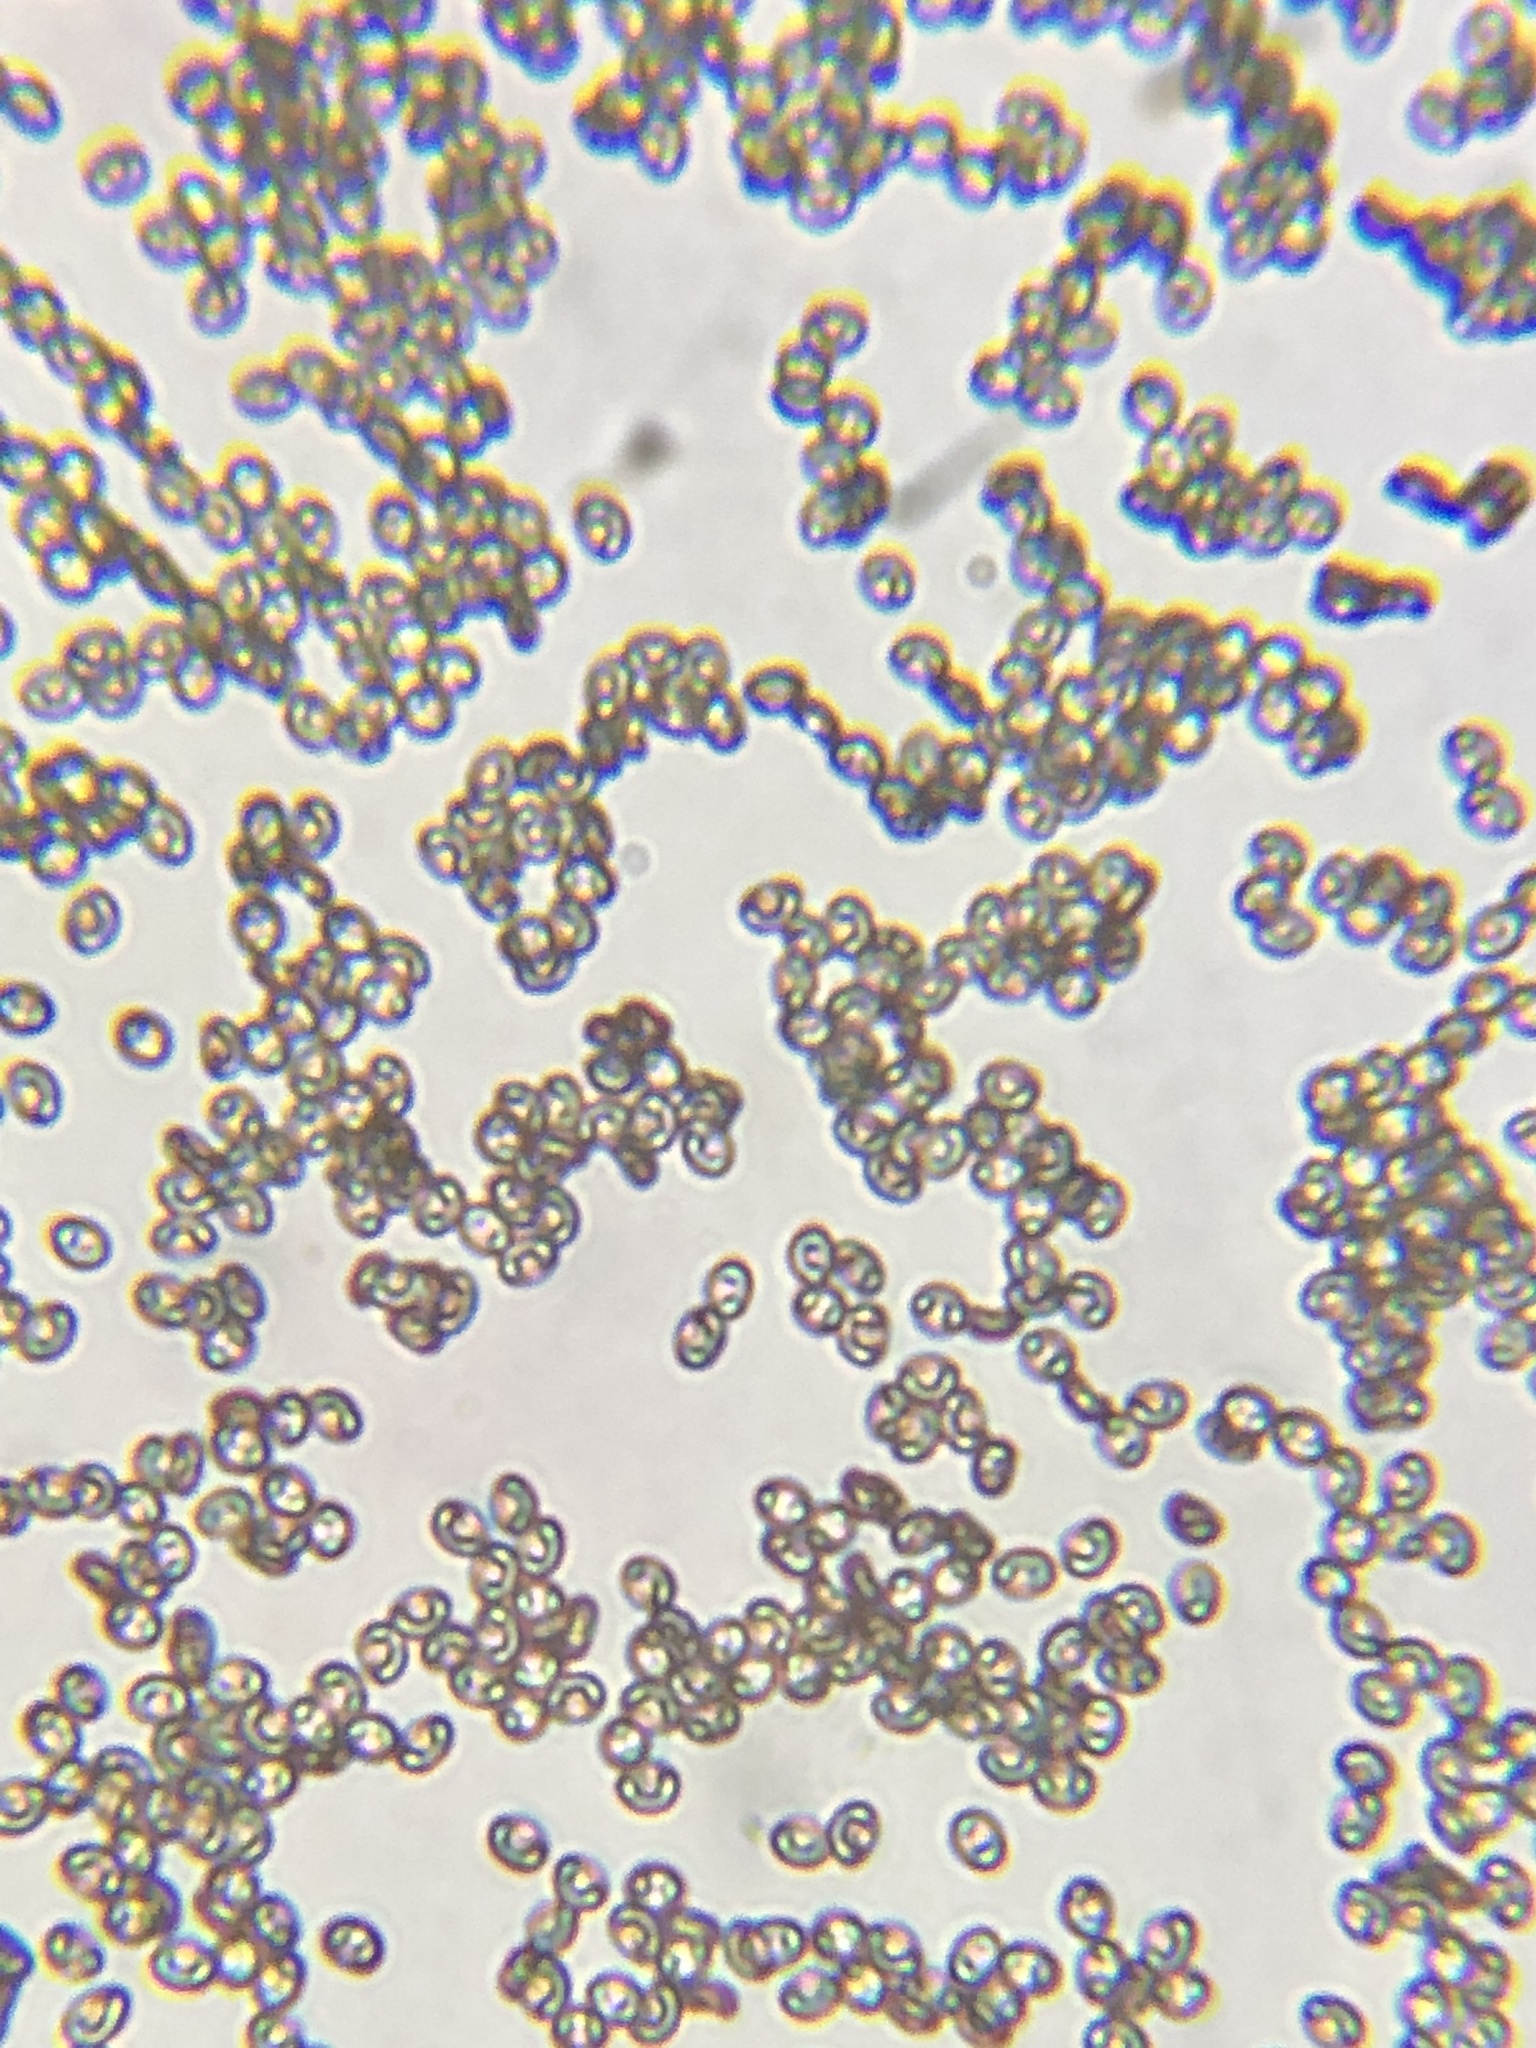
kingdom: Fungi
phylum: Basidiomycota
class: Agaricomycetes
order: Agaricales
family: Strophariaceae
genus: Pholiota
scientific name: Pholiota squarrosoides
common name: Sharp-scaly pholiota
